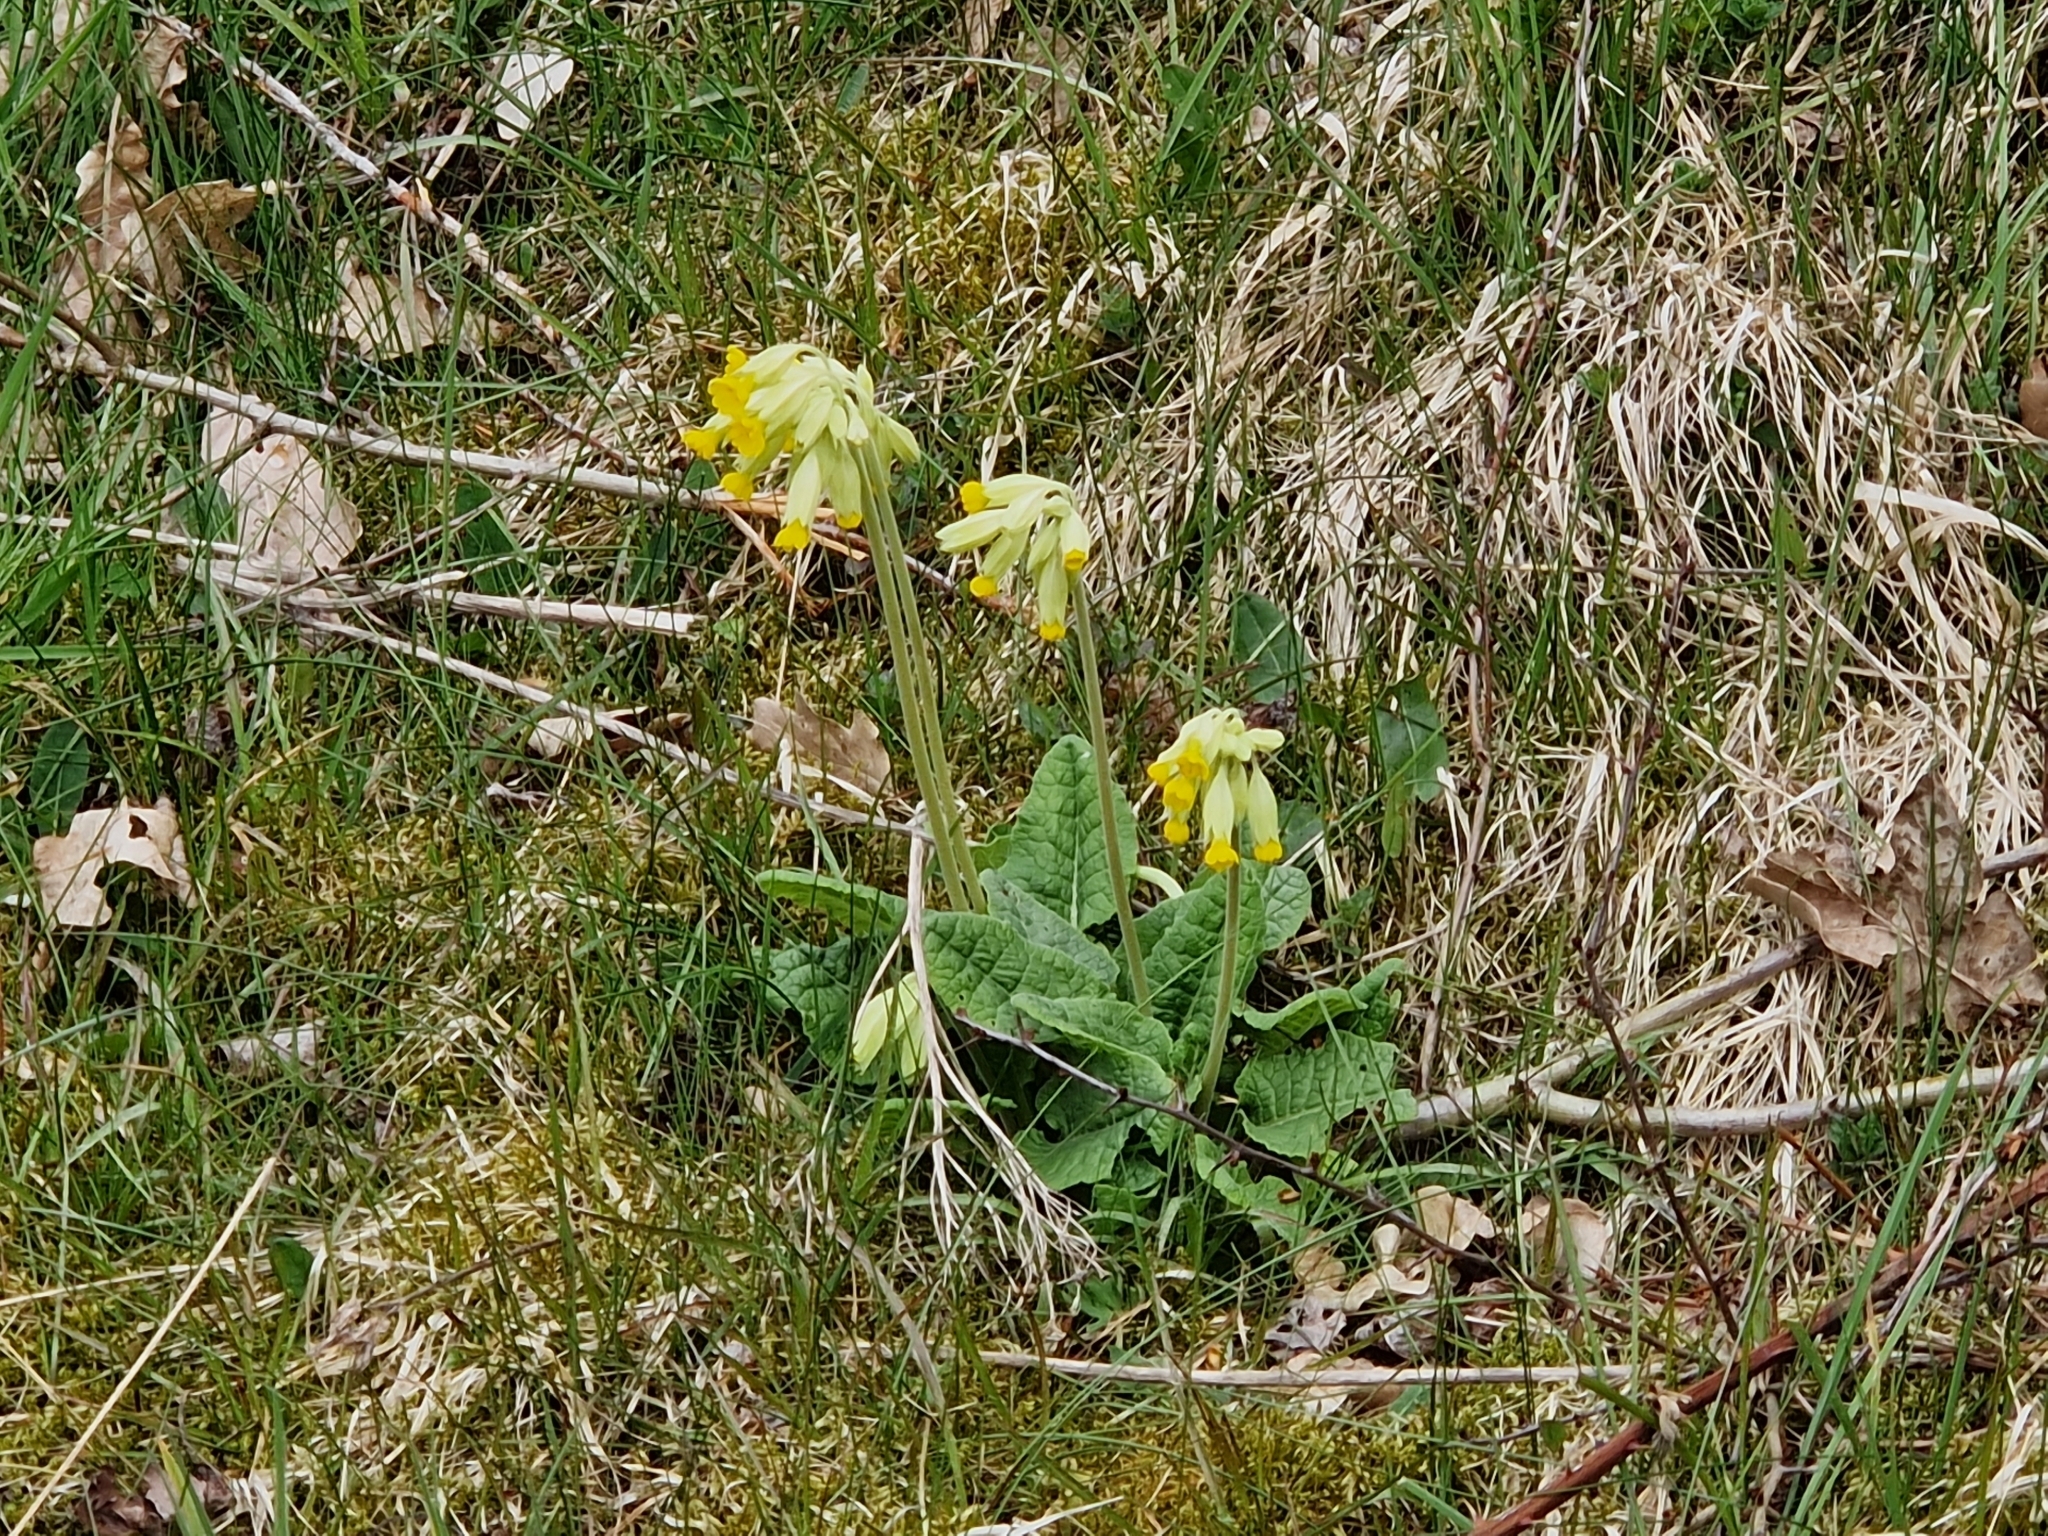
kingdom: Plantae
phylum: Tracheophyta
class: Magnoliopsida
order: Ericales
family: Primulaceae
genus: Primula
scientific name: Primula veris
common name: Cowslip
